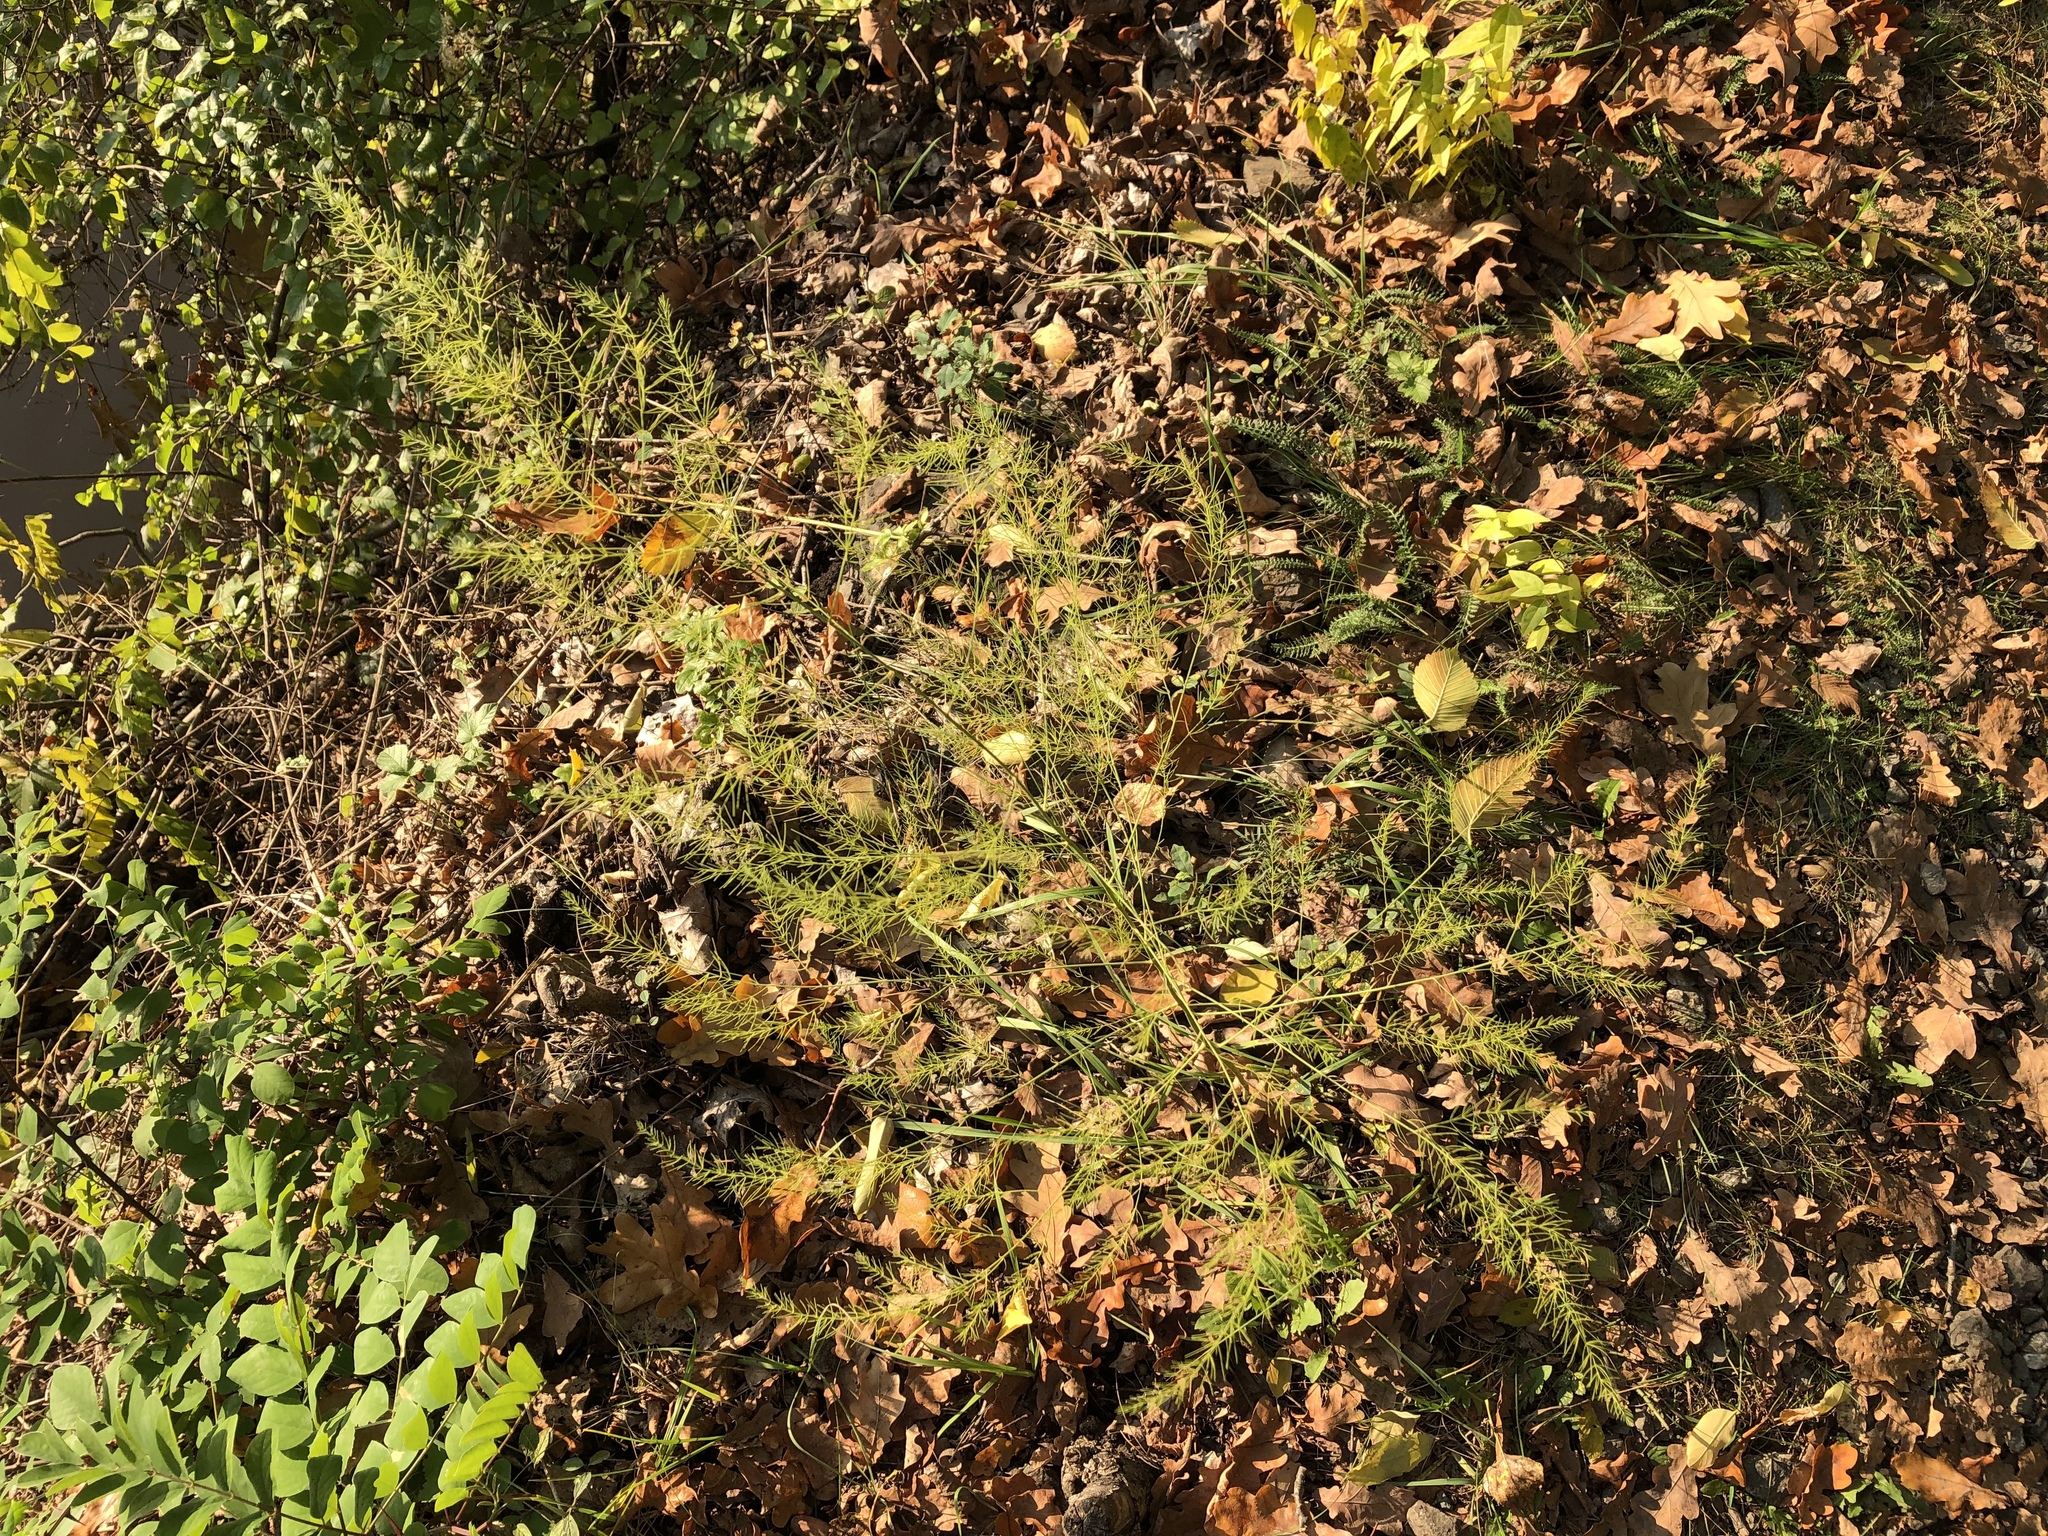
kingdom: Plantae
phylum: Tracheophyta
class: Liliopsida
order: Asparagales
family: Asparagaceae
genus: Asparagus
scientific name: Asparagus officinalis
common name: Garden asparagus
